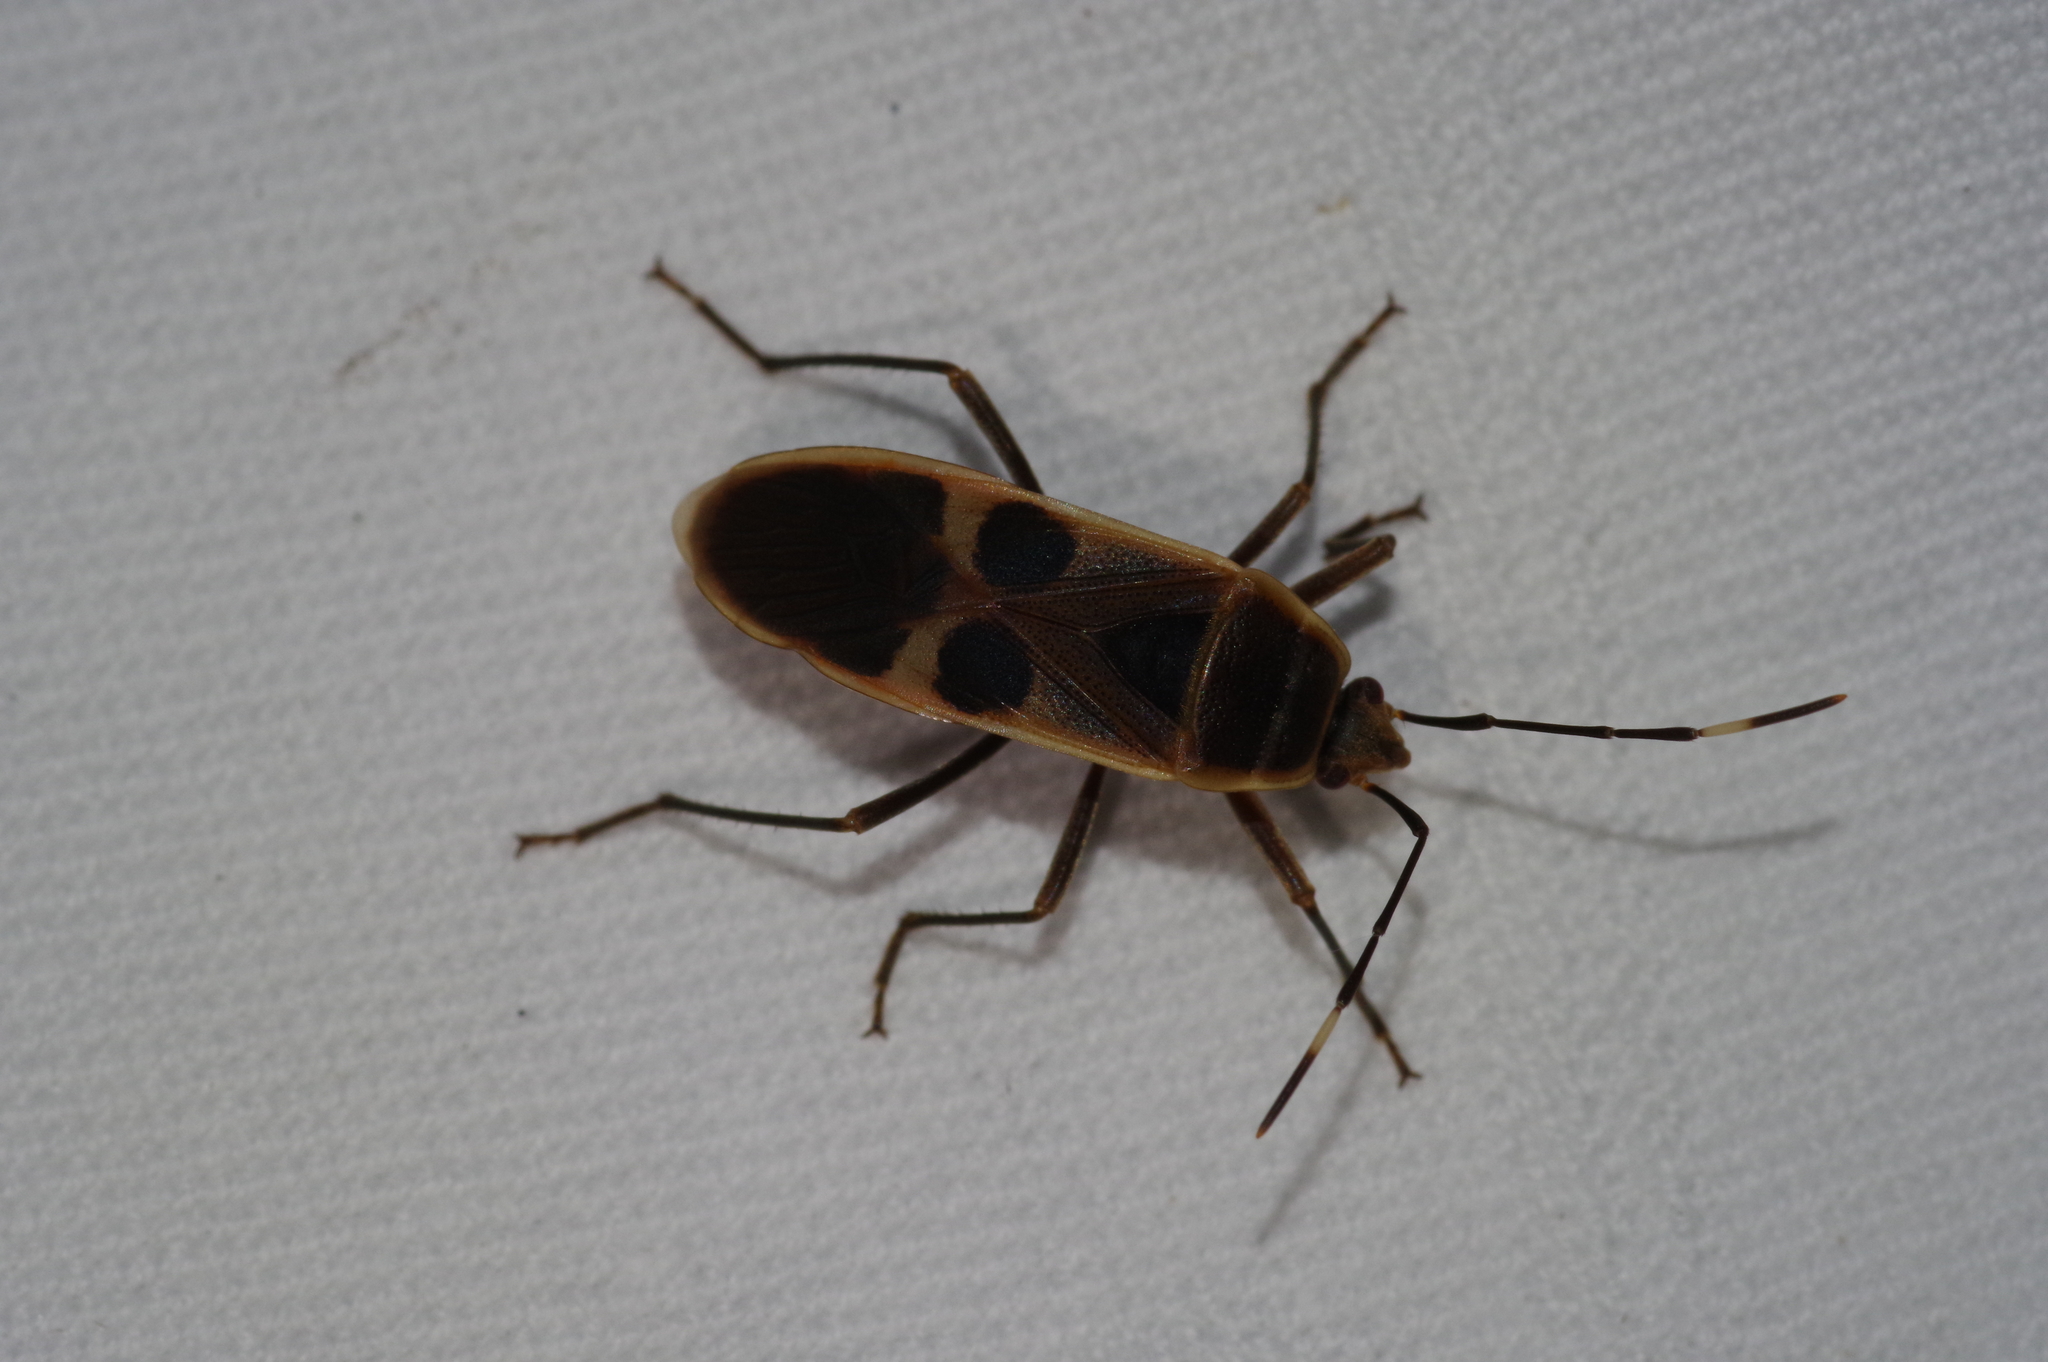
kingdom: Animalia
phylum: Arthropoda
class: Insecta
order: Hemiptera
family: Largidae
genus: Physopelta
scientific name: Physopelta gutta
